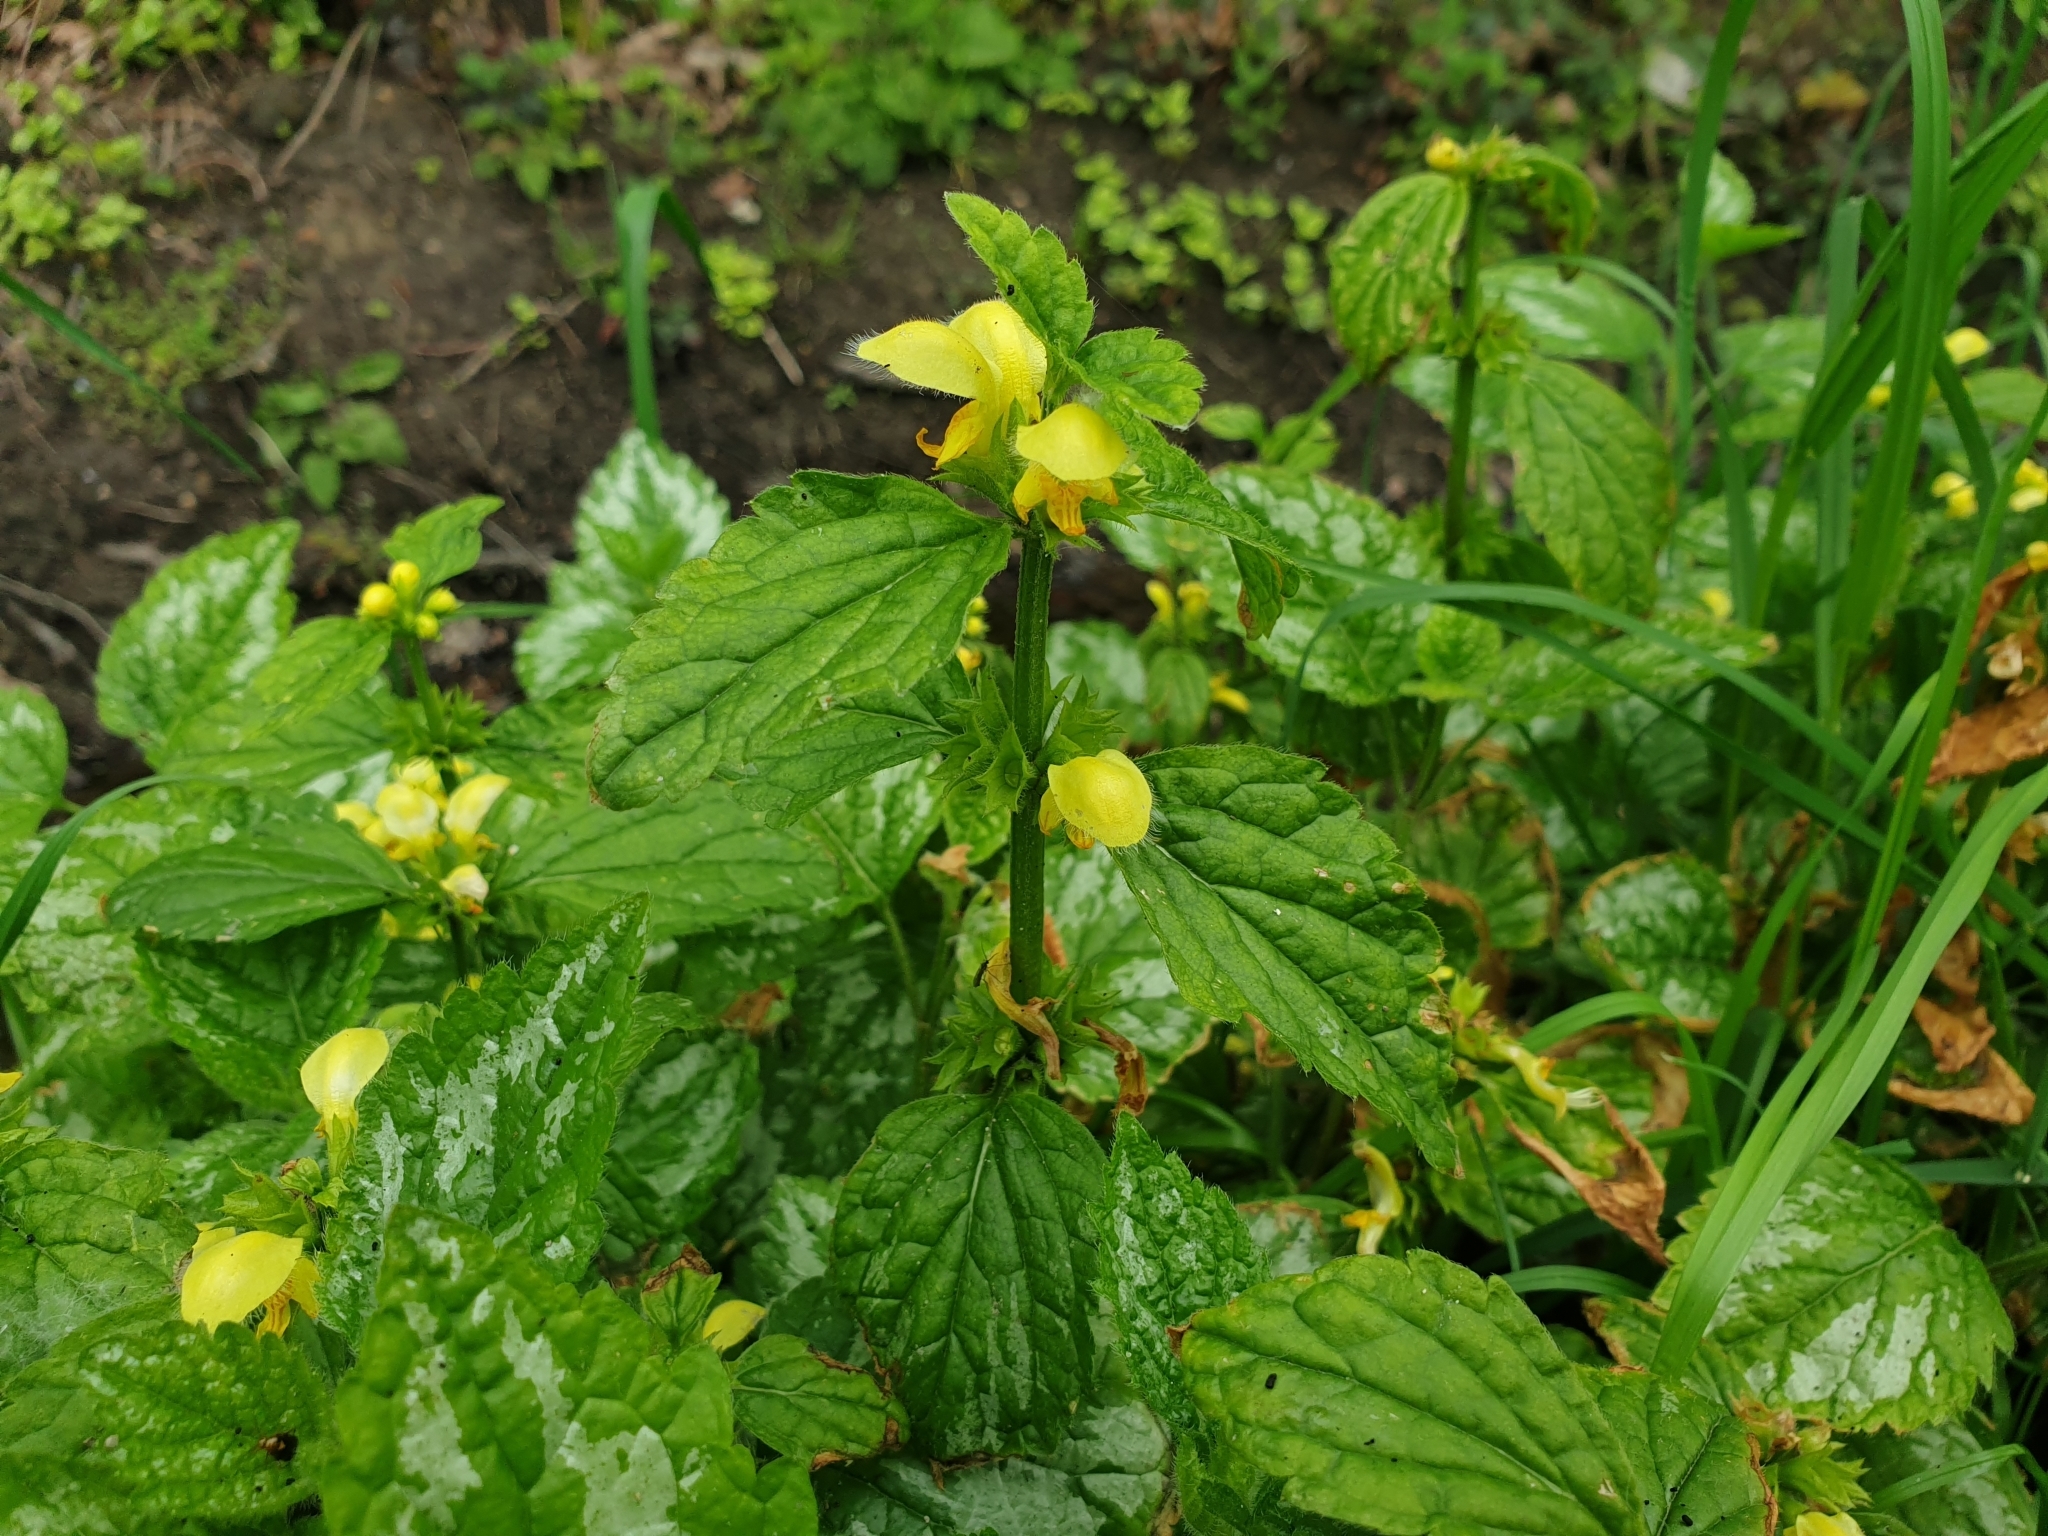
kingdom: Plantae
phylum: Tracheophyta
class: Magnoliopsida
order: Lamiales
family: Lamiaceae
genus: Lamium
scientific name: Lamium galeobdolon
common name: Yellow archangel
